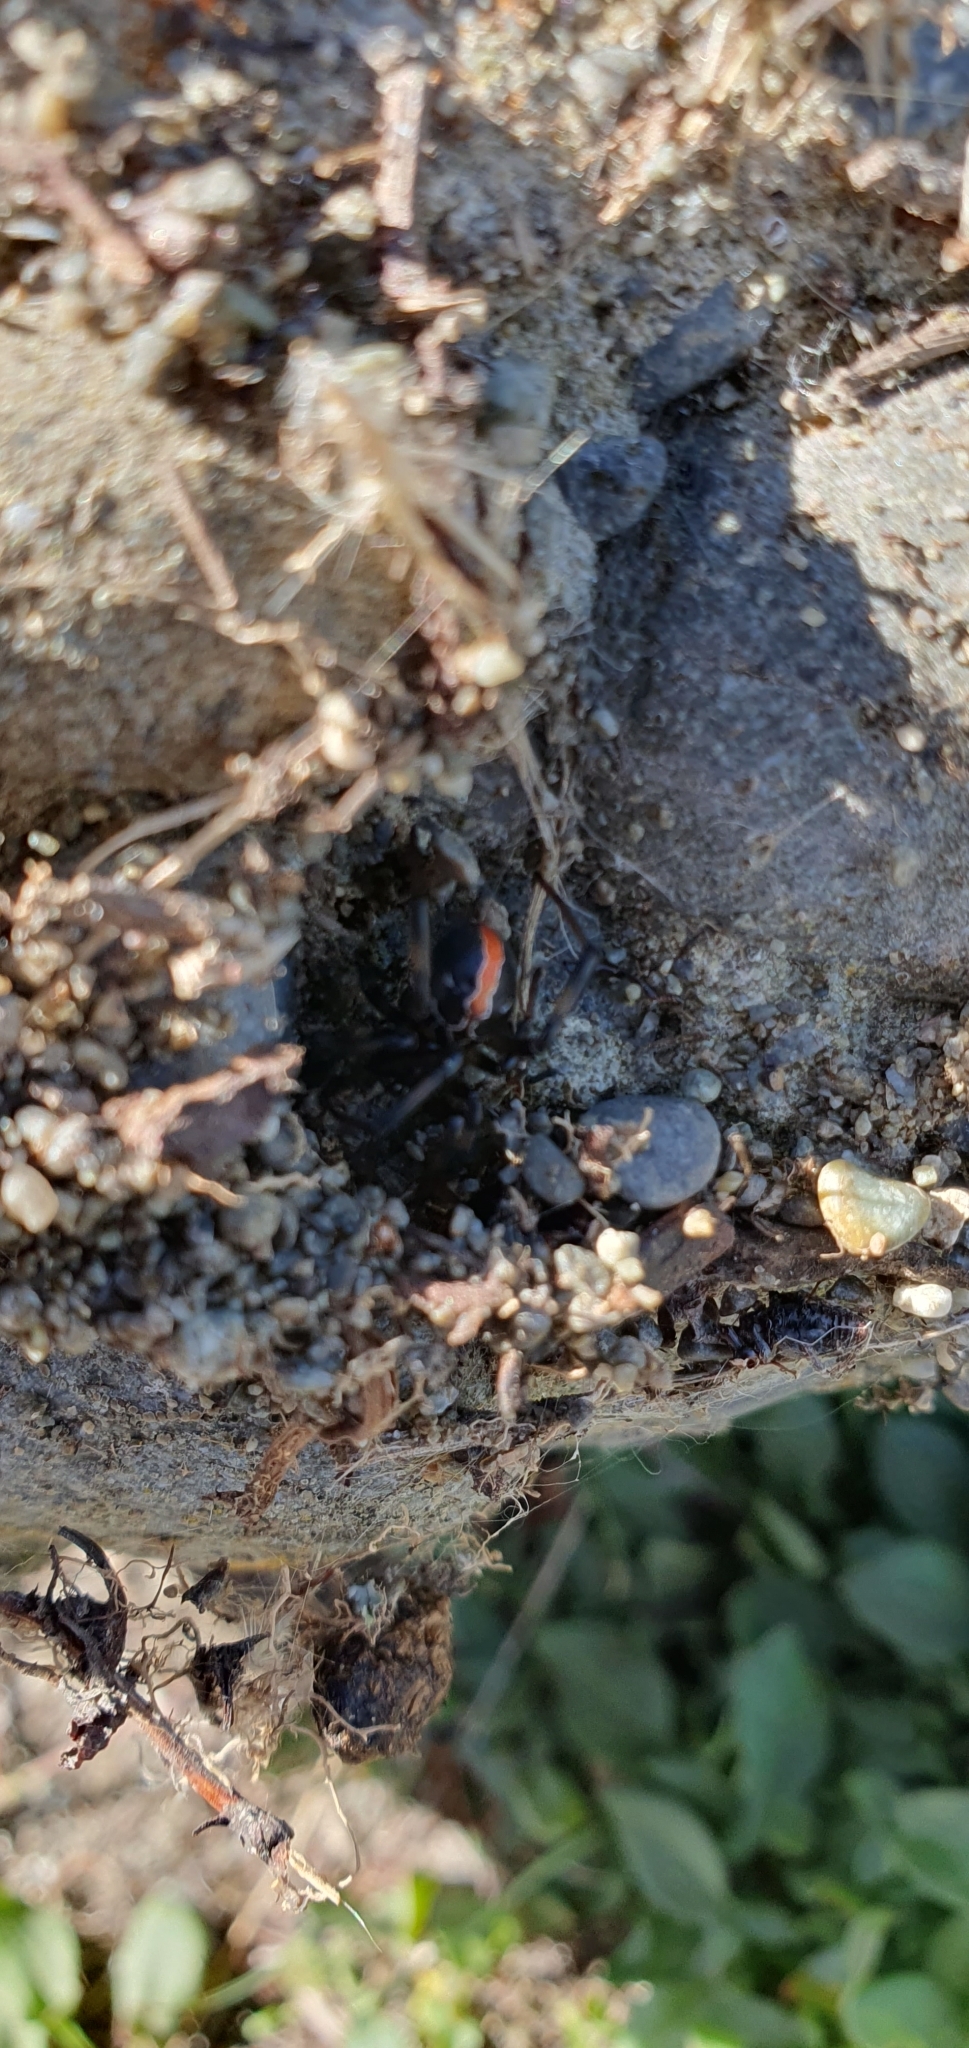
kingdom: Animalia
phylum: Arthropoda
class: Arachnida
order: Araneae
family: Theridiidae
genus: Latrodectus
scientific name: Latrodectus katipo
